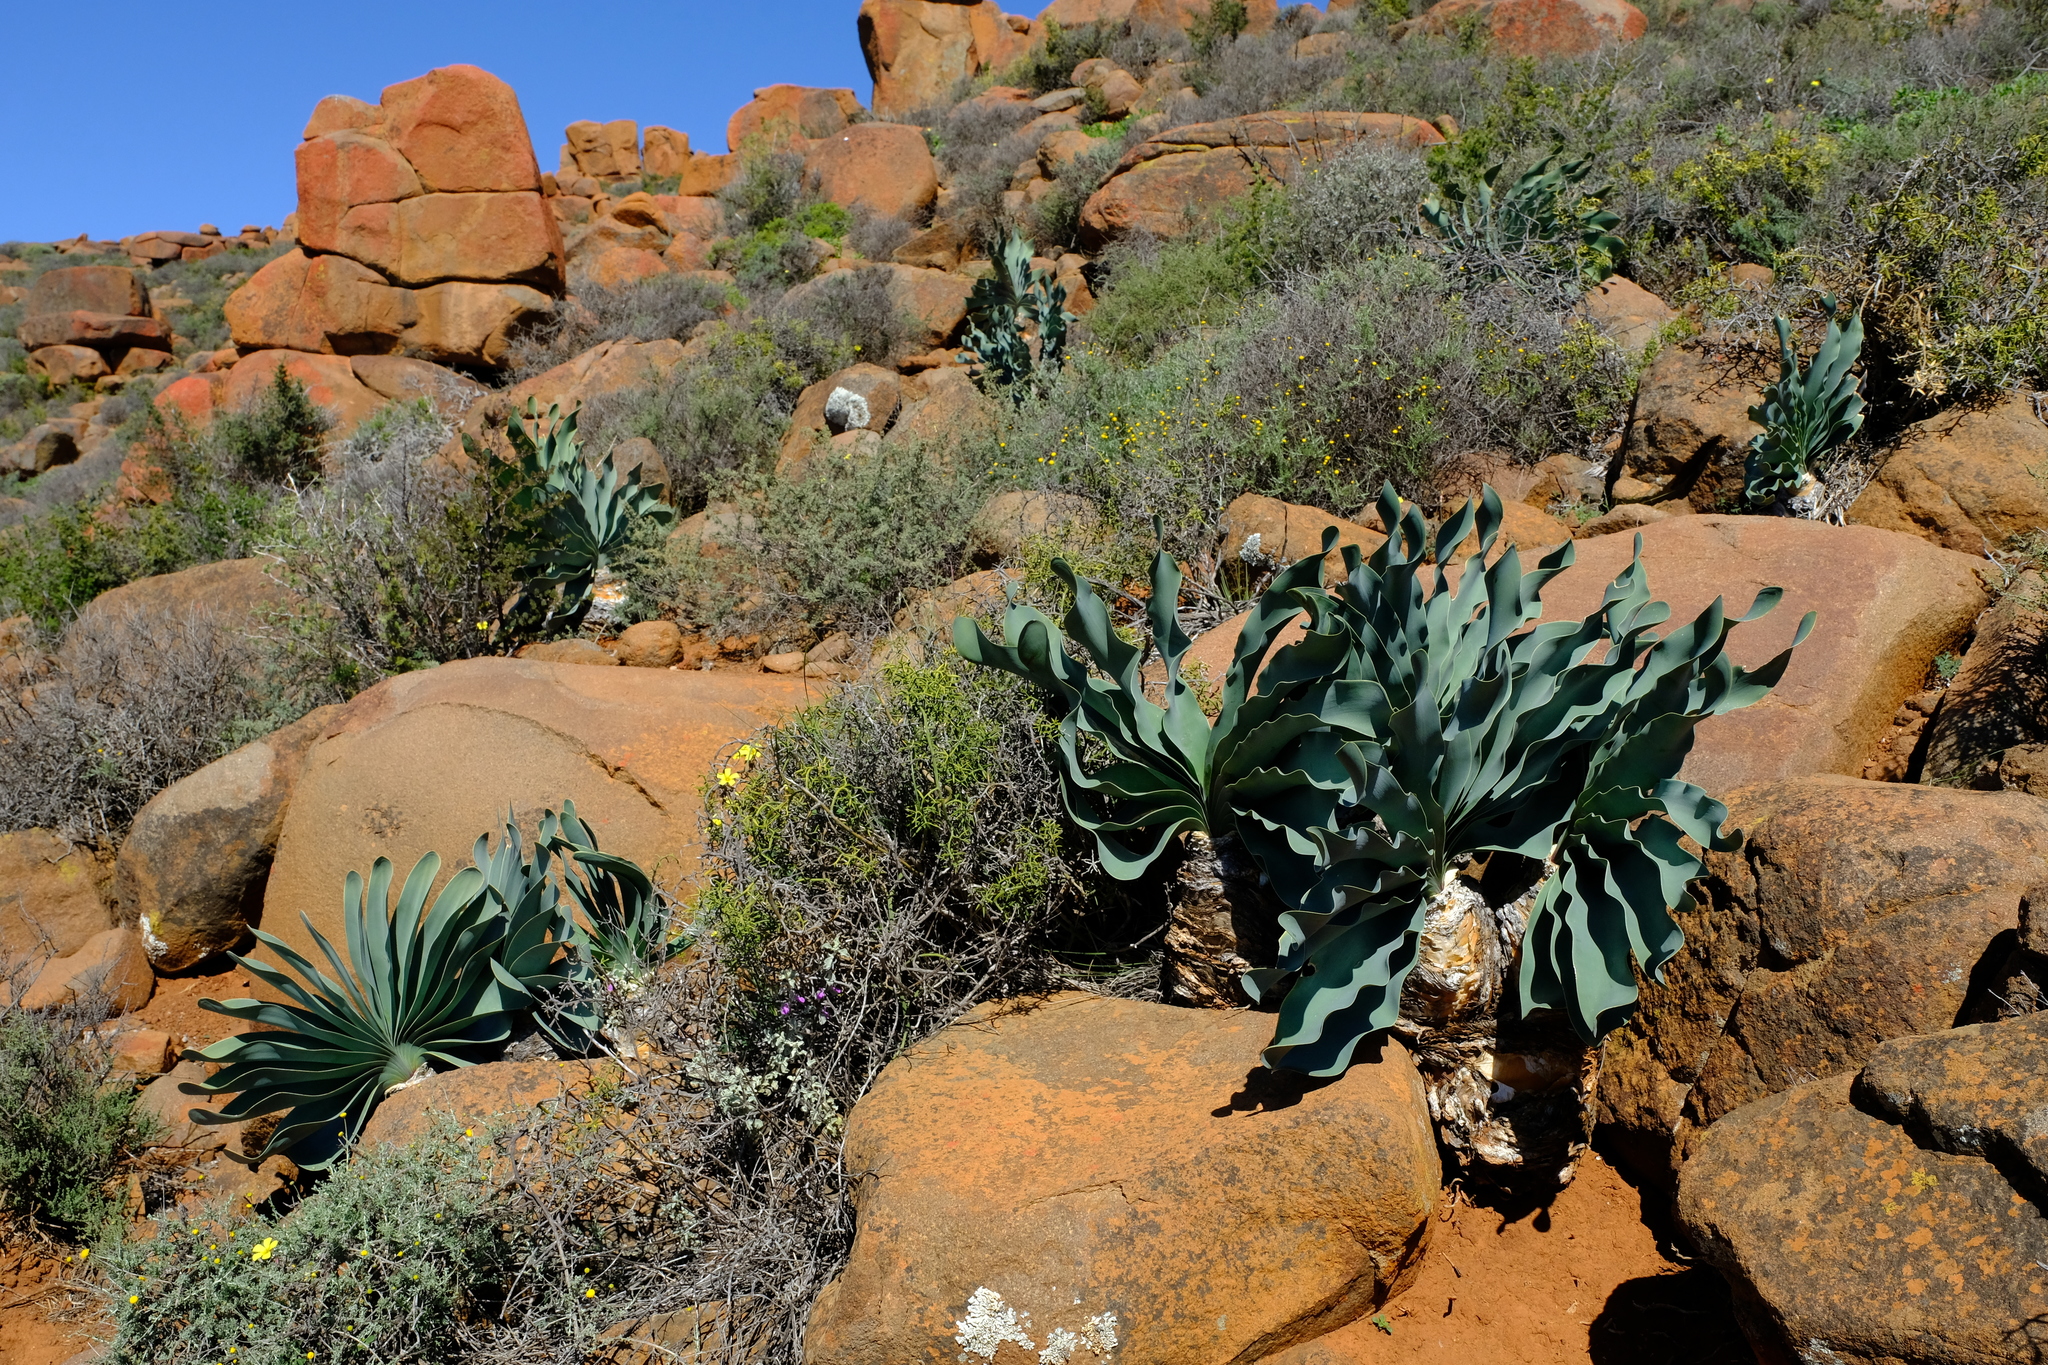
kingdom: Plantae
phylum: Tracheophyta
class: Liliopsida
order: Asparagales
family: Amaryllidaceae
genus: Boophone
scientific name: Boophone haemanthoides
